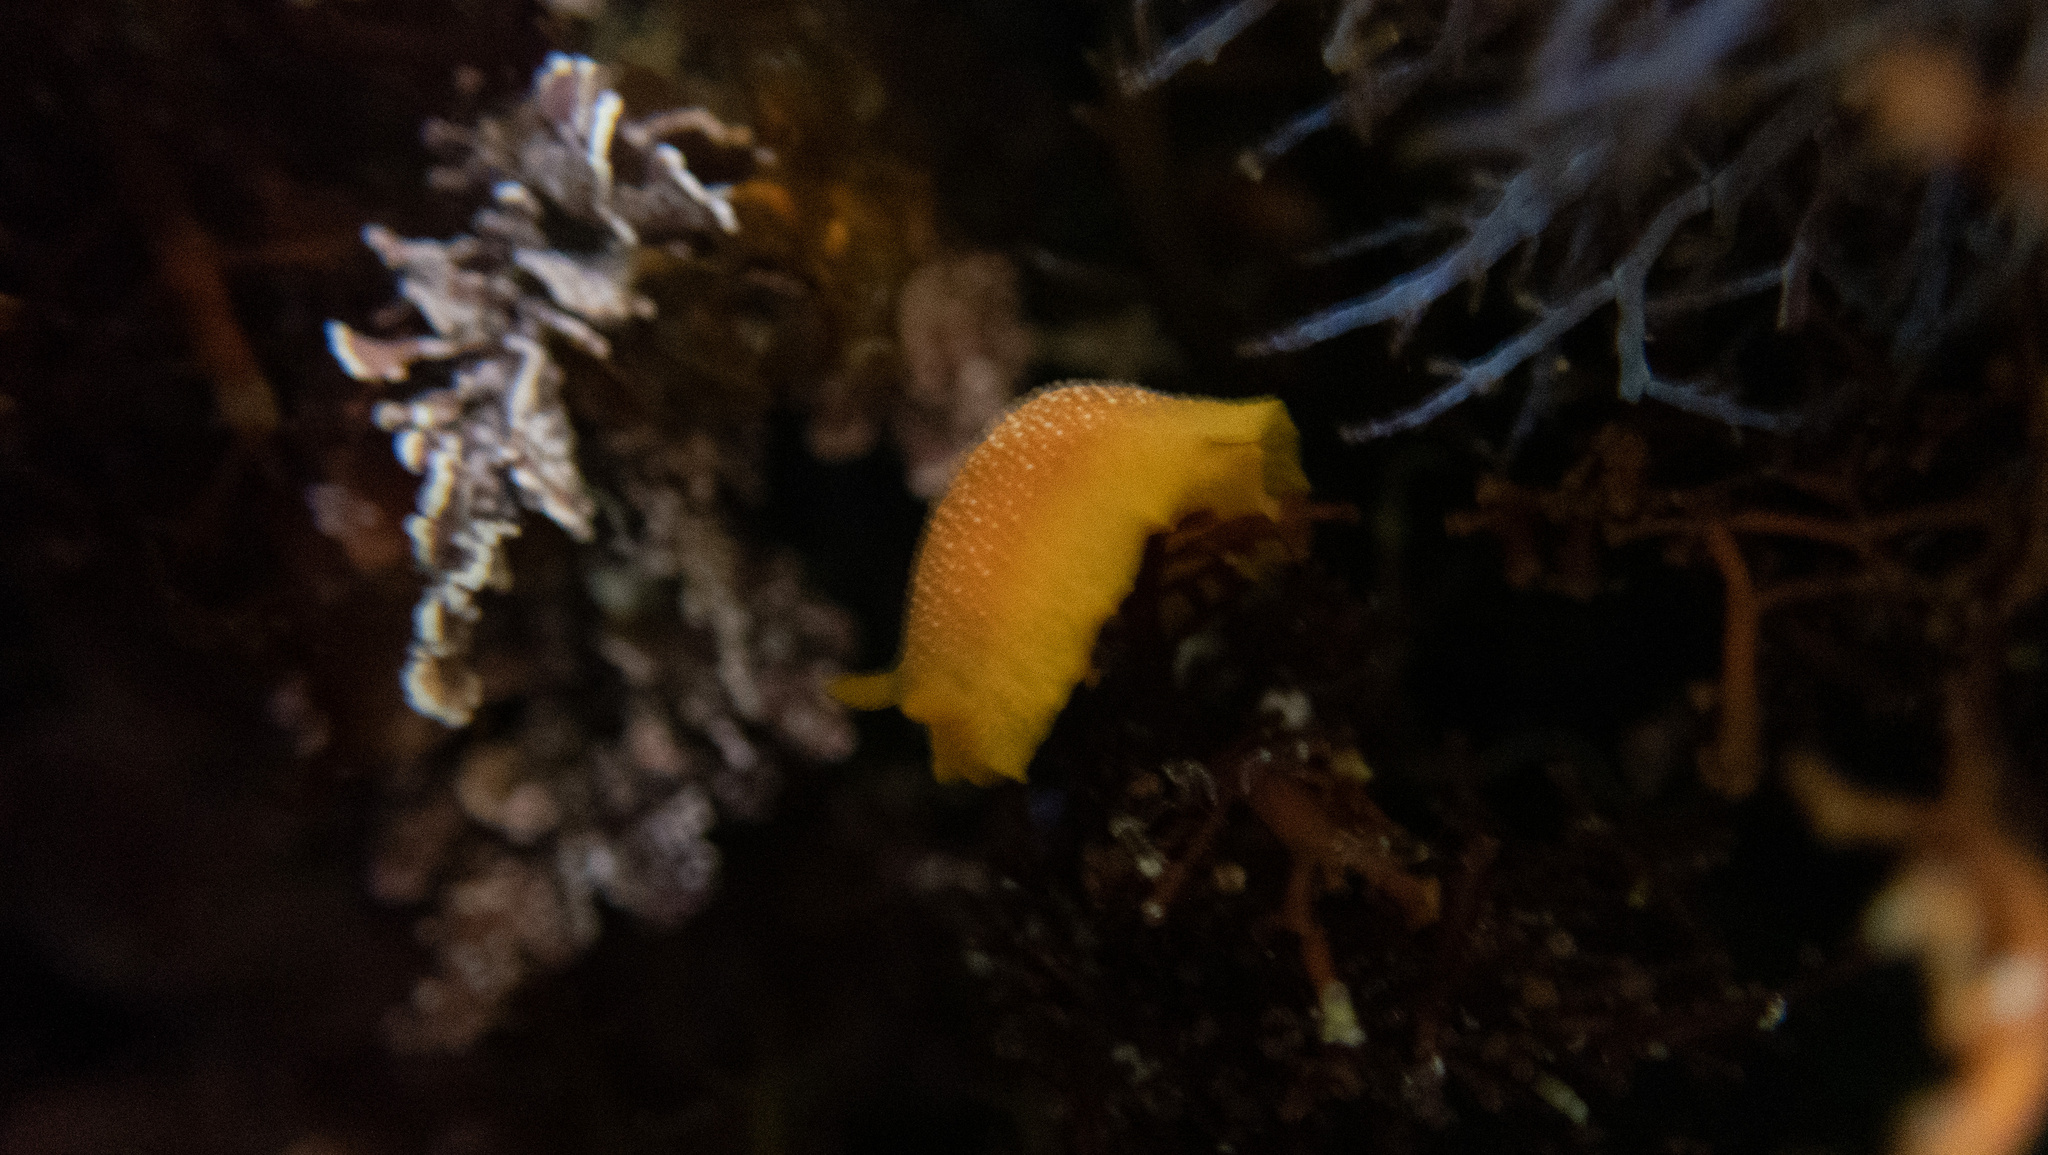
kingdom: Animalia
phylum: Mollusca
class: Gastropoda
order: Nudibranchia
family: Dendrodorididae
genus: Doriopsilla
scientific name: Doriopsilla gemela
